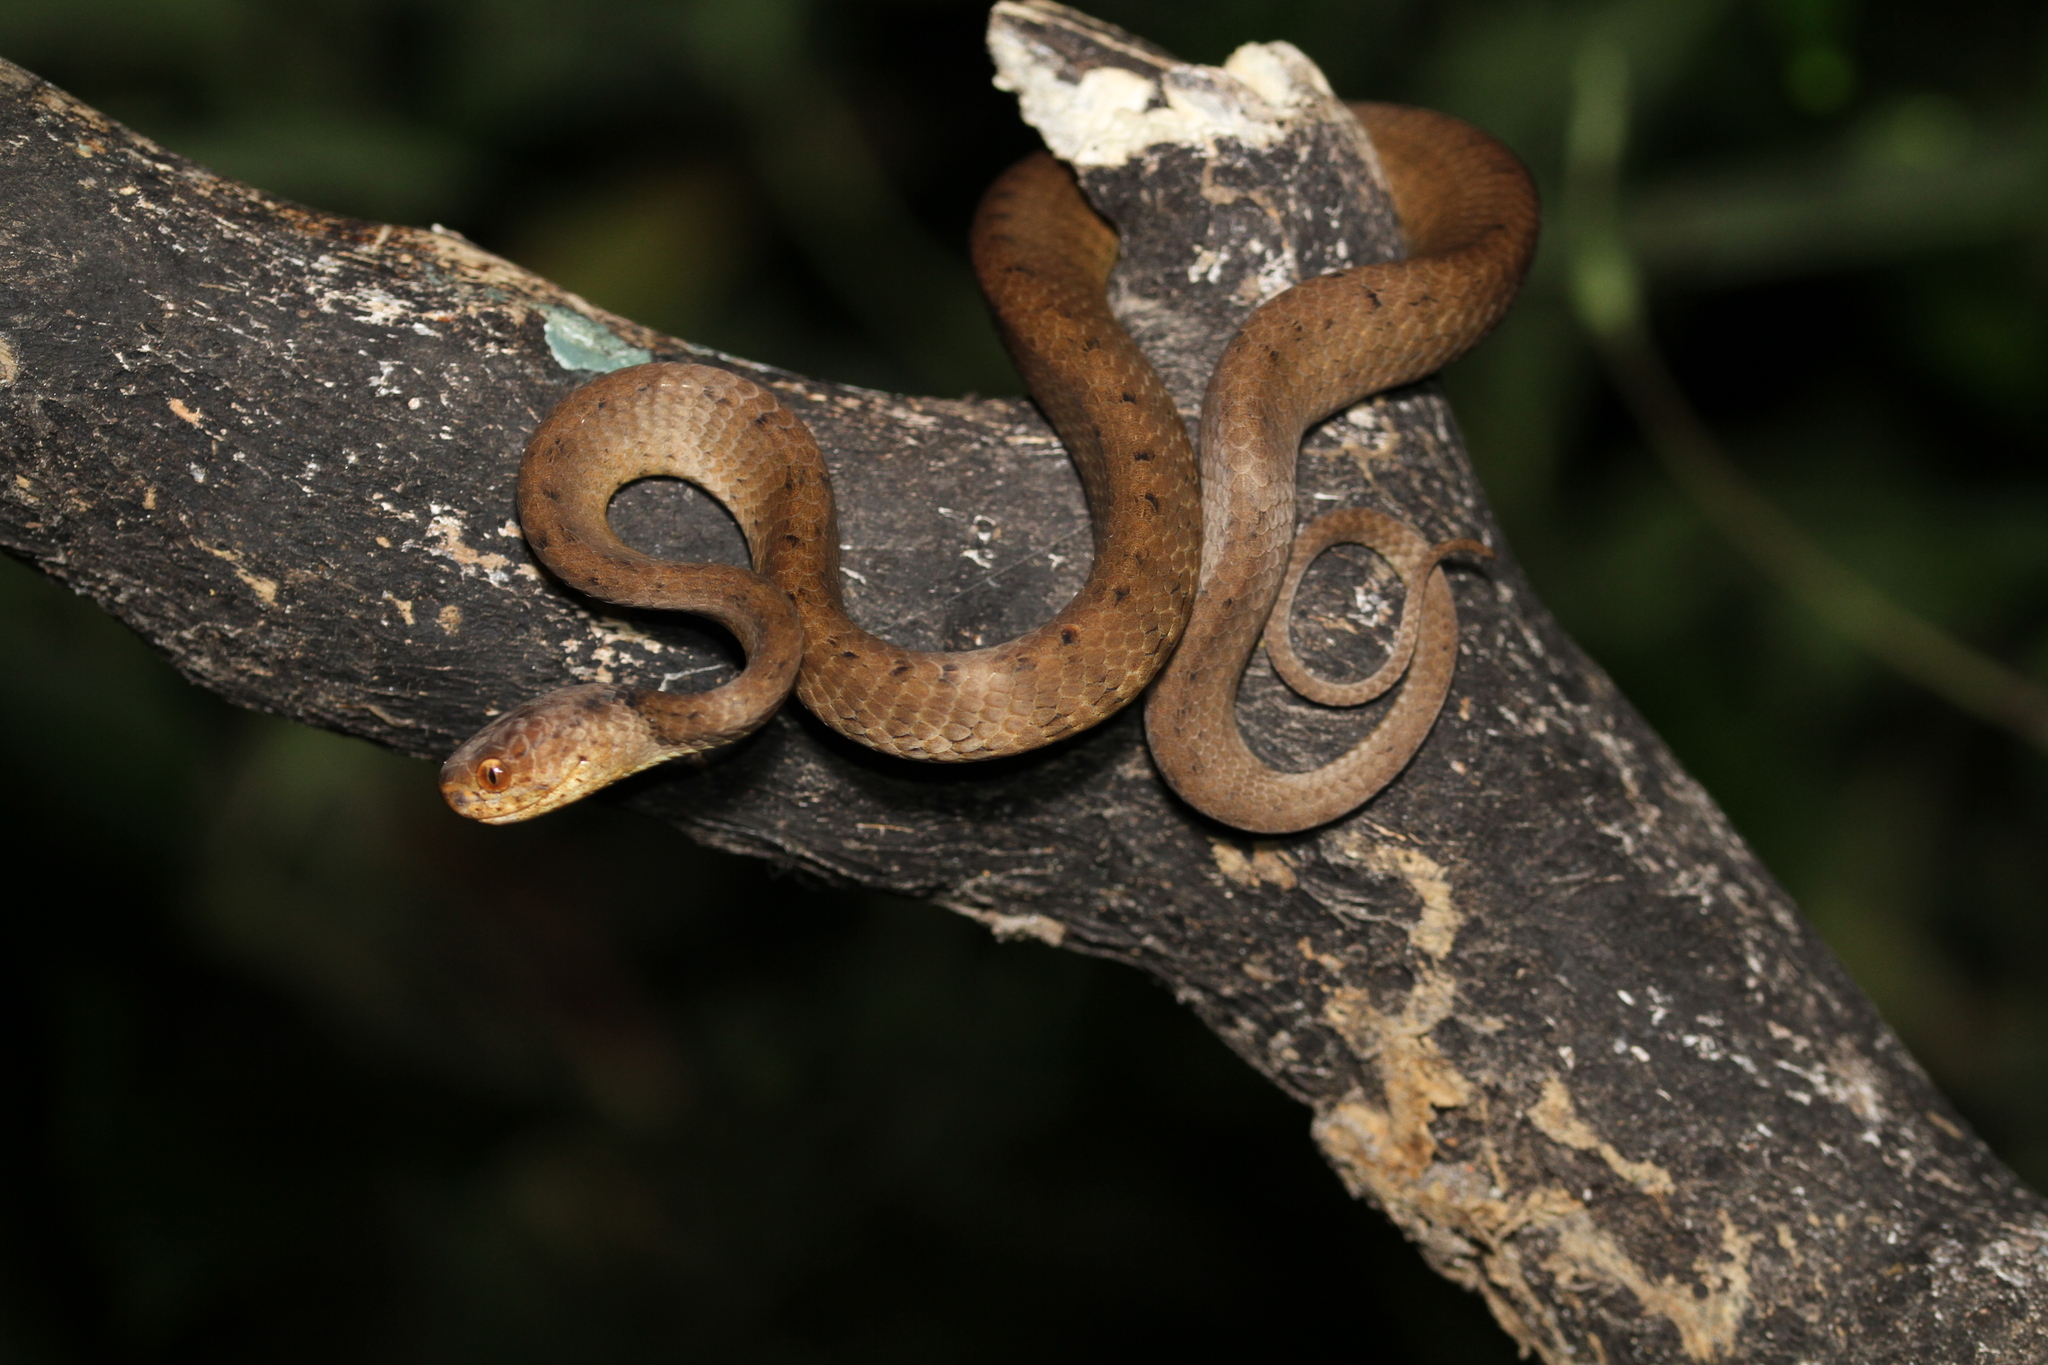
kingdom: Animalia
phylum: Chordata
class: Squamata
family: Pareidae
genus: Pareas
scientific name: Pareas carinatus
